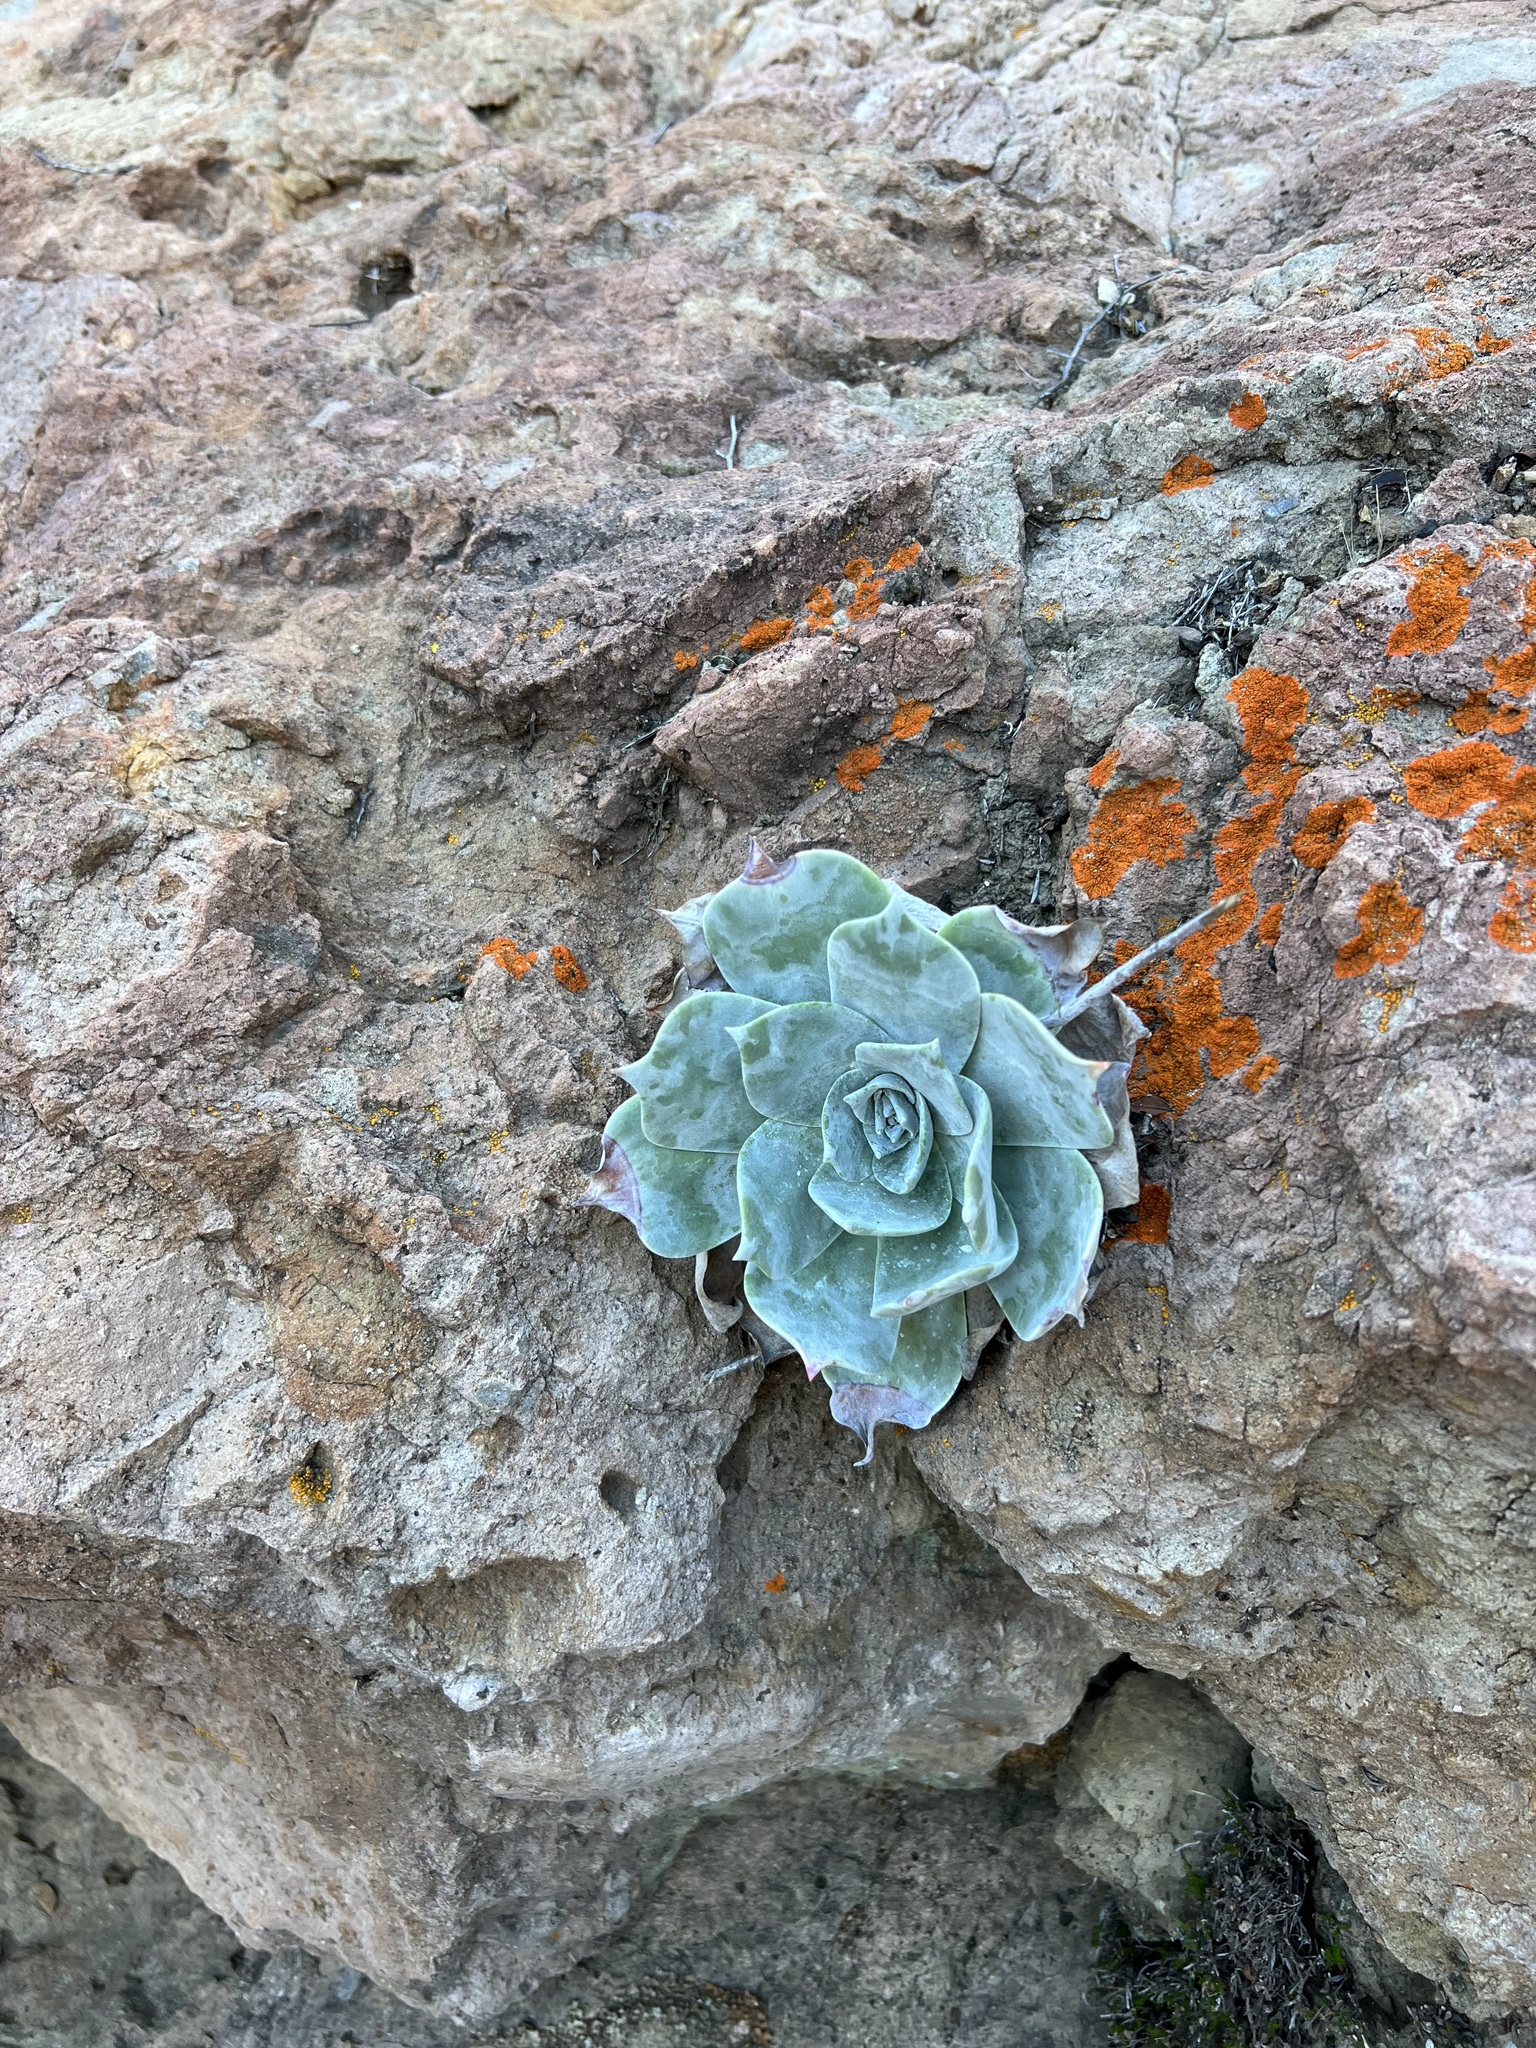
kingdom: Plantae
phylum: Tracheophyta
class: Magnoliopsida
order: Saxifragales
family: Crassulaceae
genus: Dudleya
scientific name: Dudleya pulverulenta
